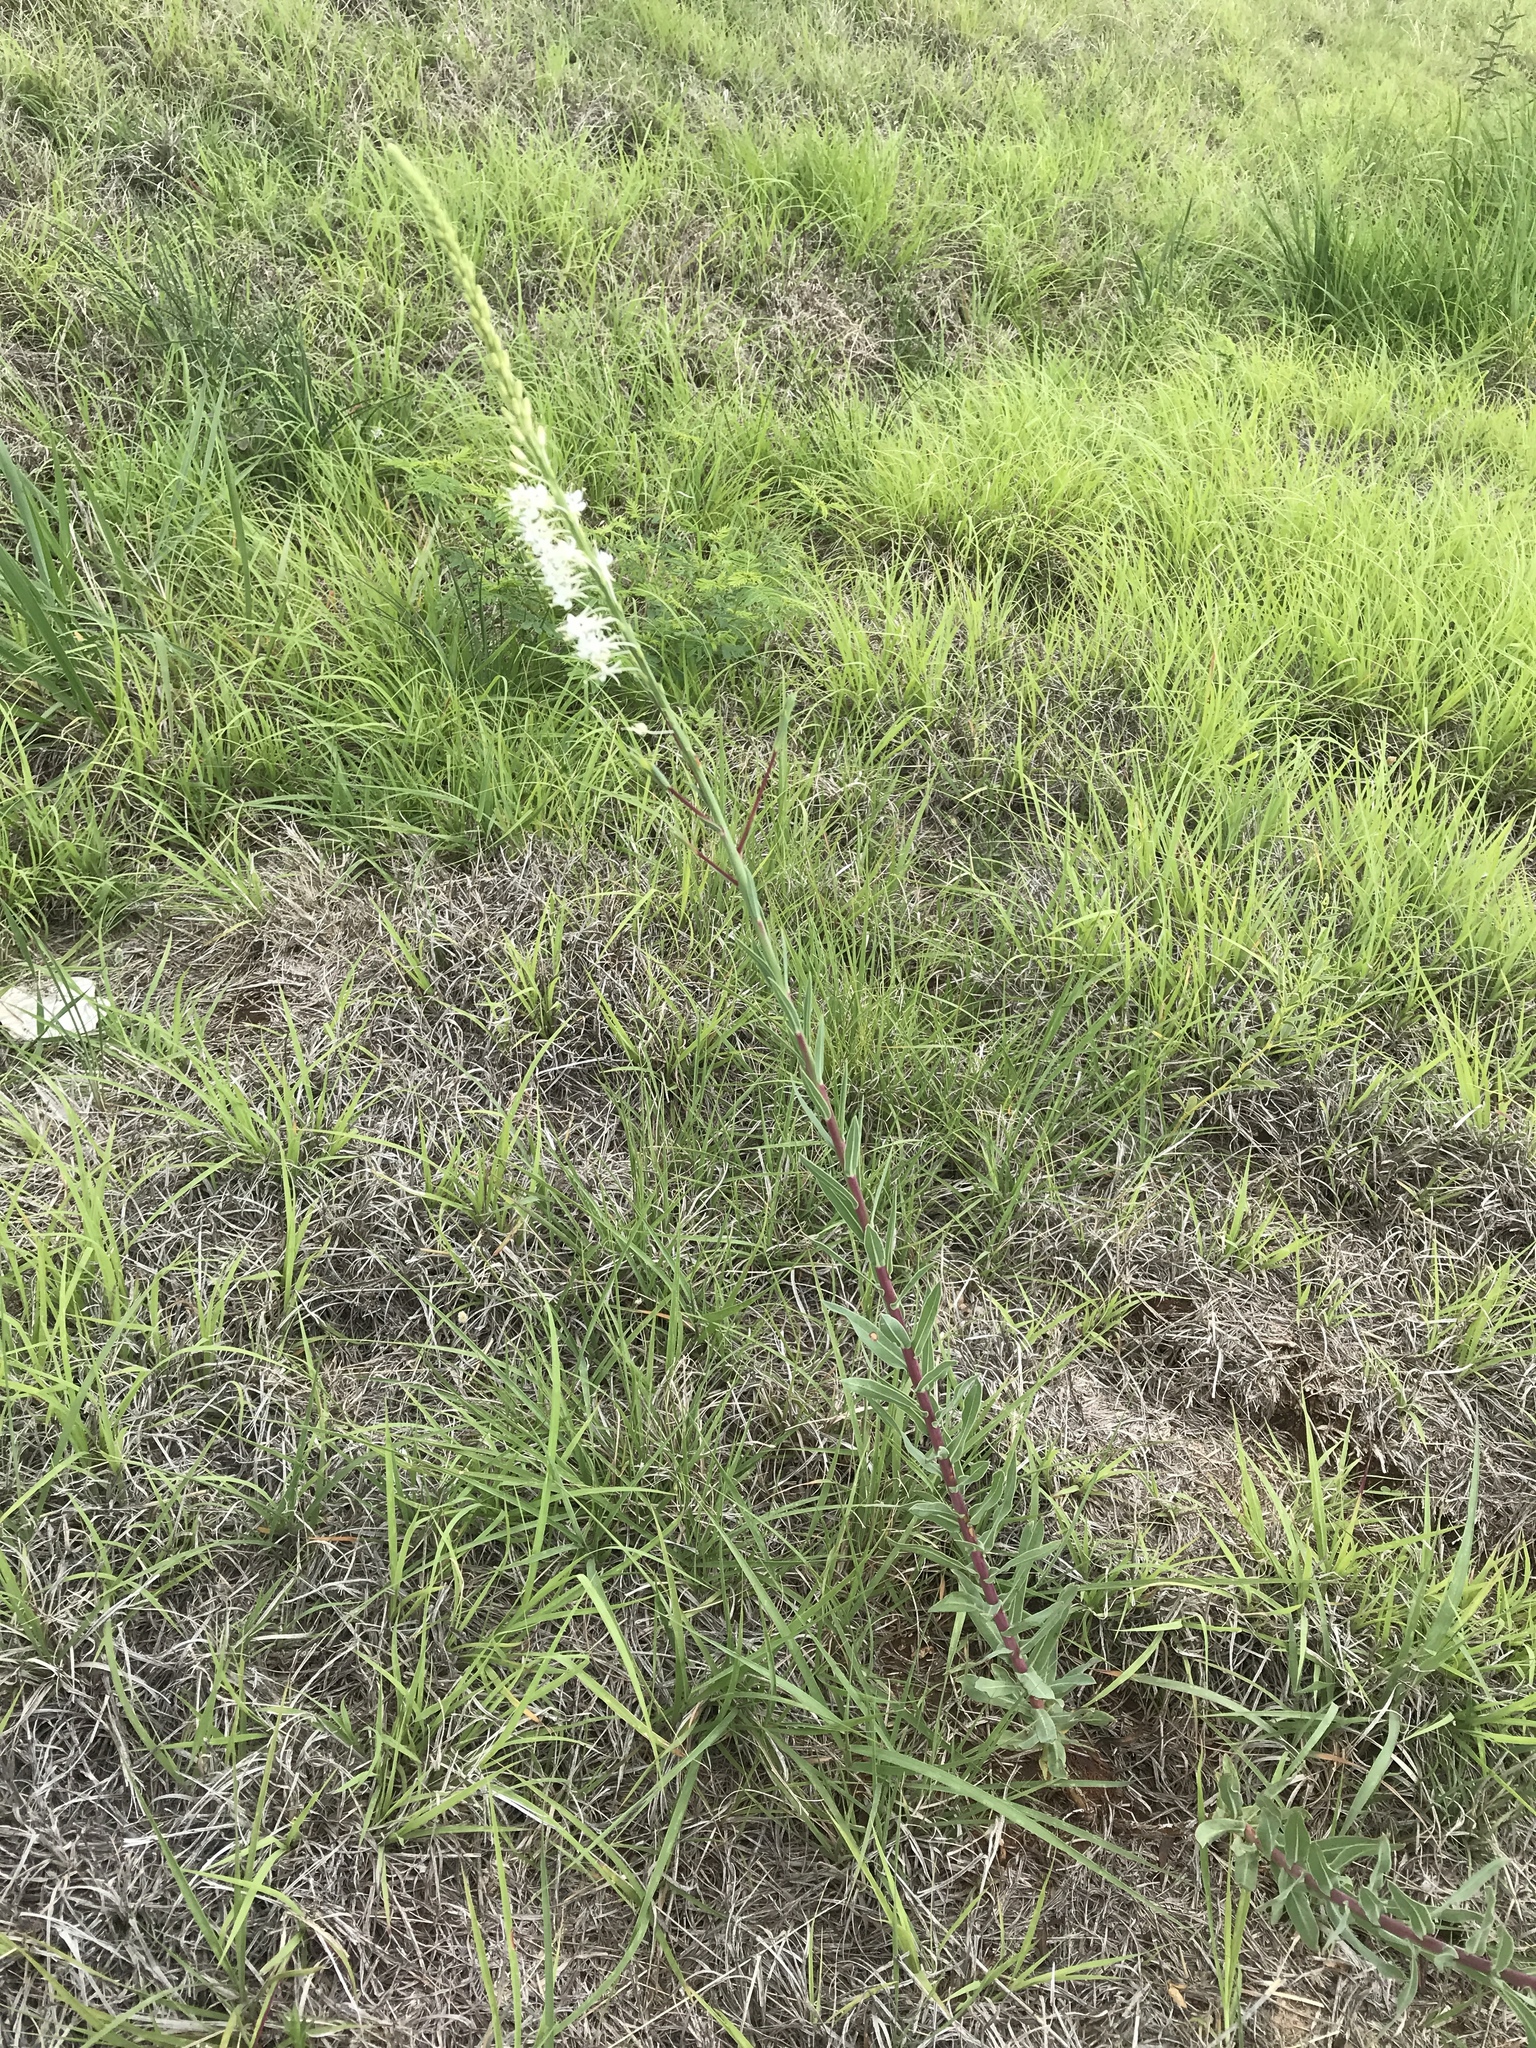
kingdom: Plantae
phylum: Tracheophyta
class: Magnoliopsida
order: Myrtales
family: Onagraceae
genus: Oenothera
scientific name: Oenothera glaucifolia
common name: False gaura
